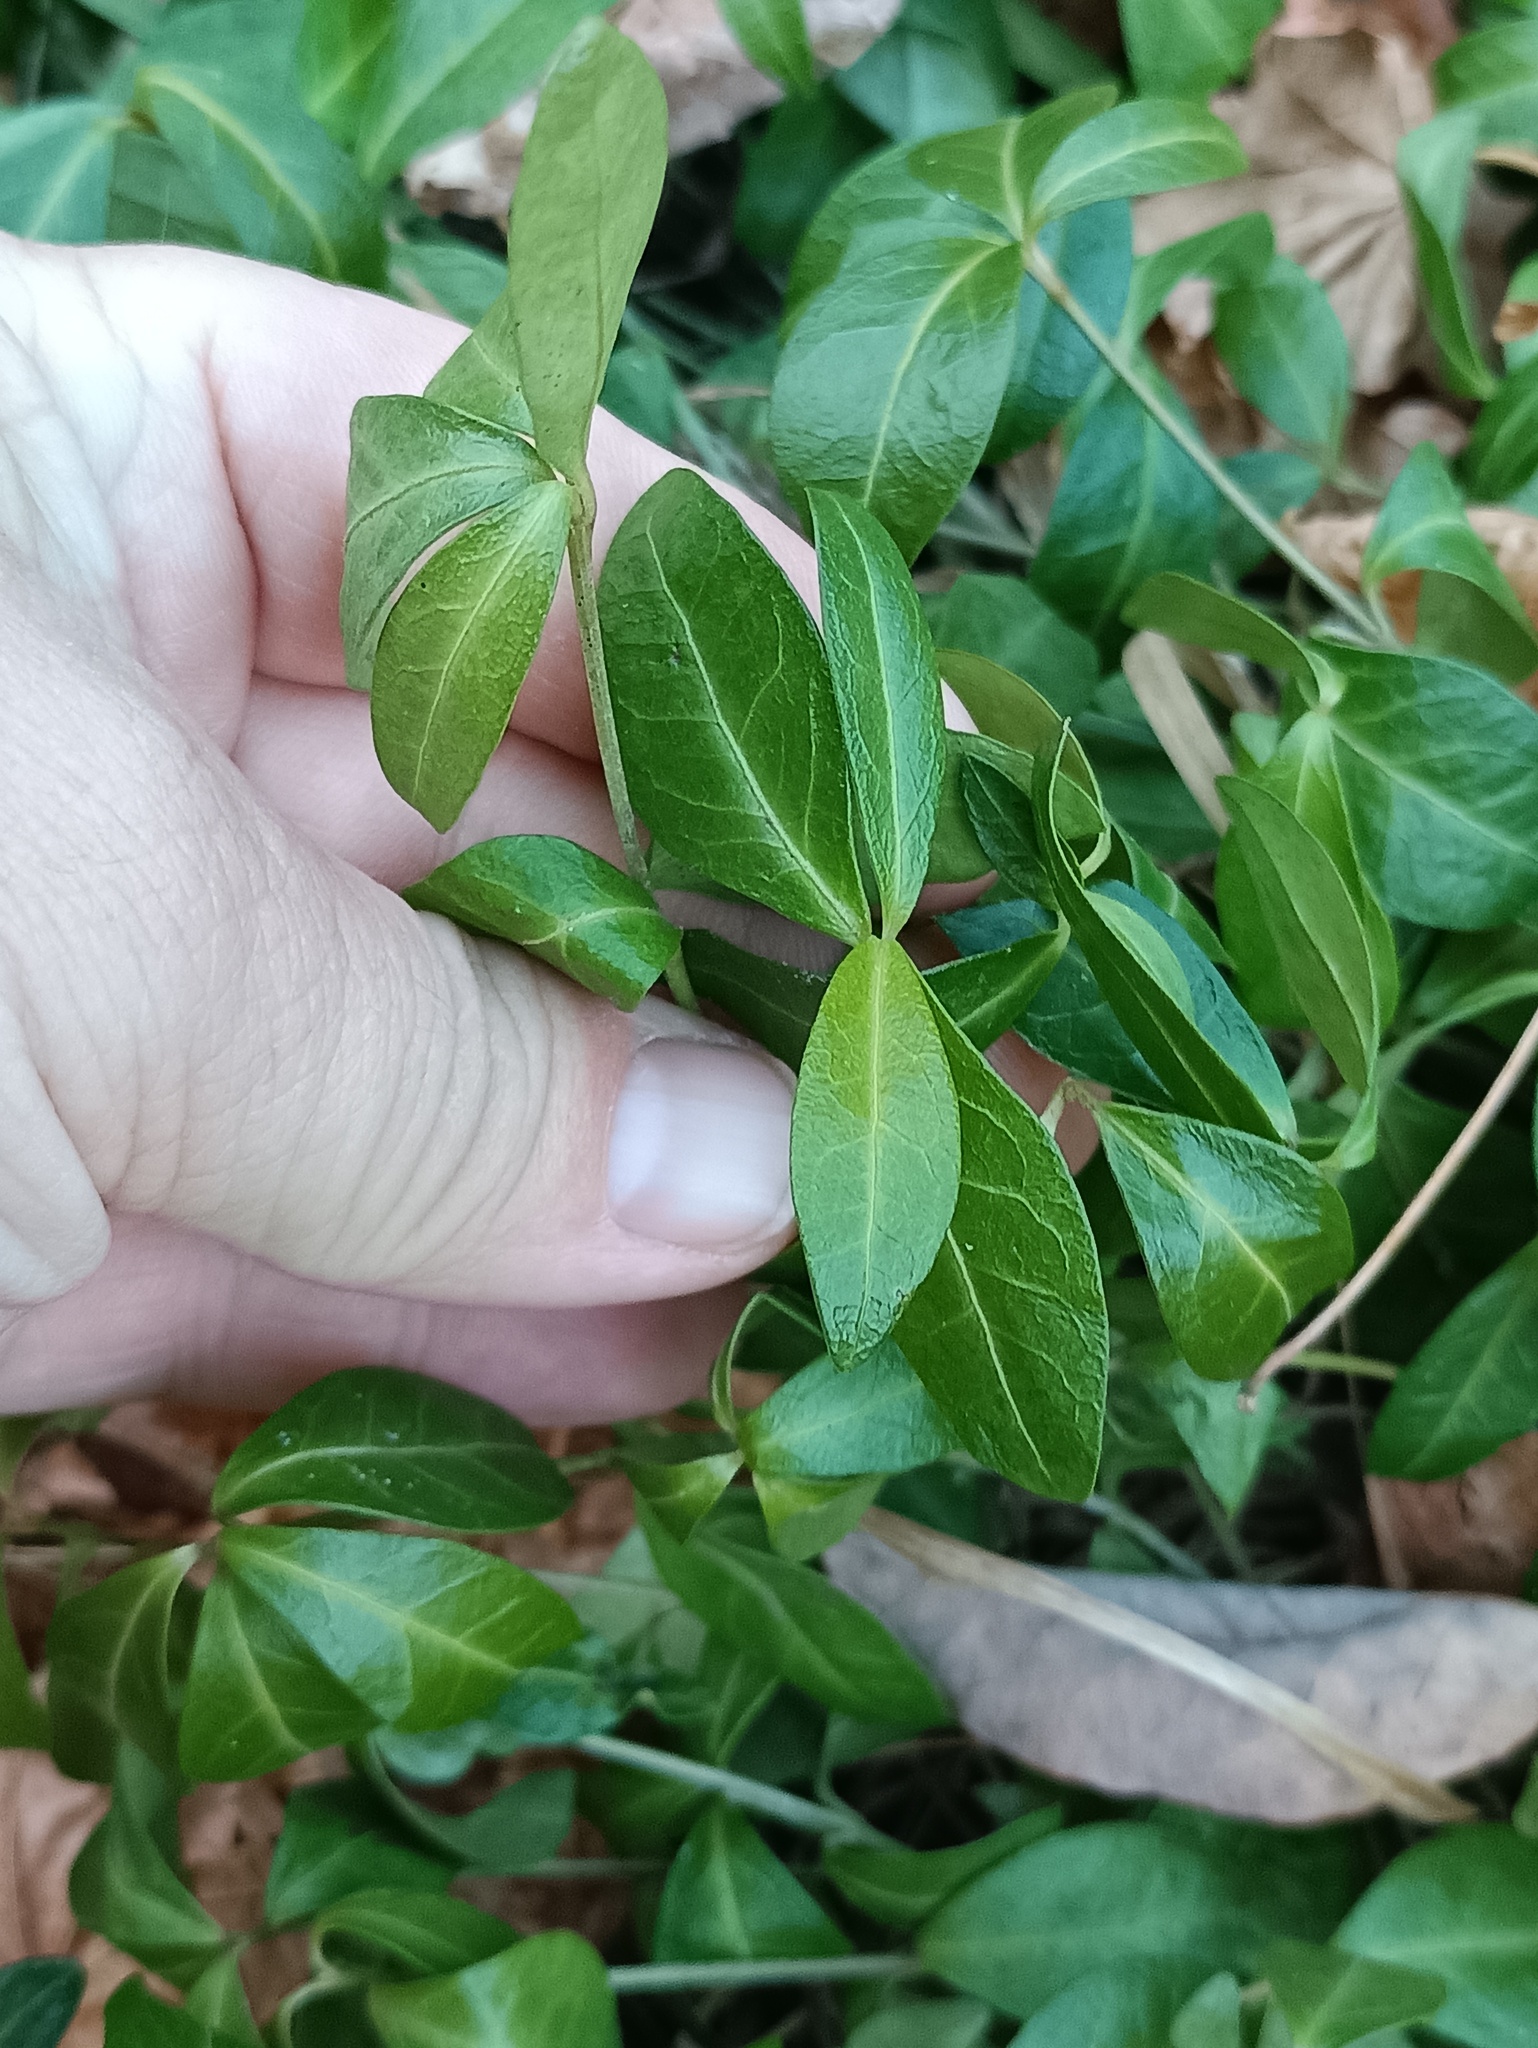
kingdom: Plantae
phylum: Tracheophyta
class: Magnoliopsida
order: Gentianales
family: Apocynaceae
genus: Vinca
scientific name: Vinca minor
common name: Lesser periwinkle
